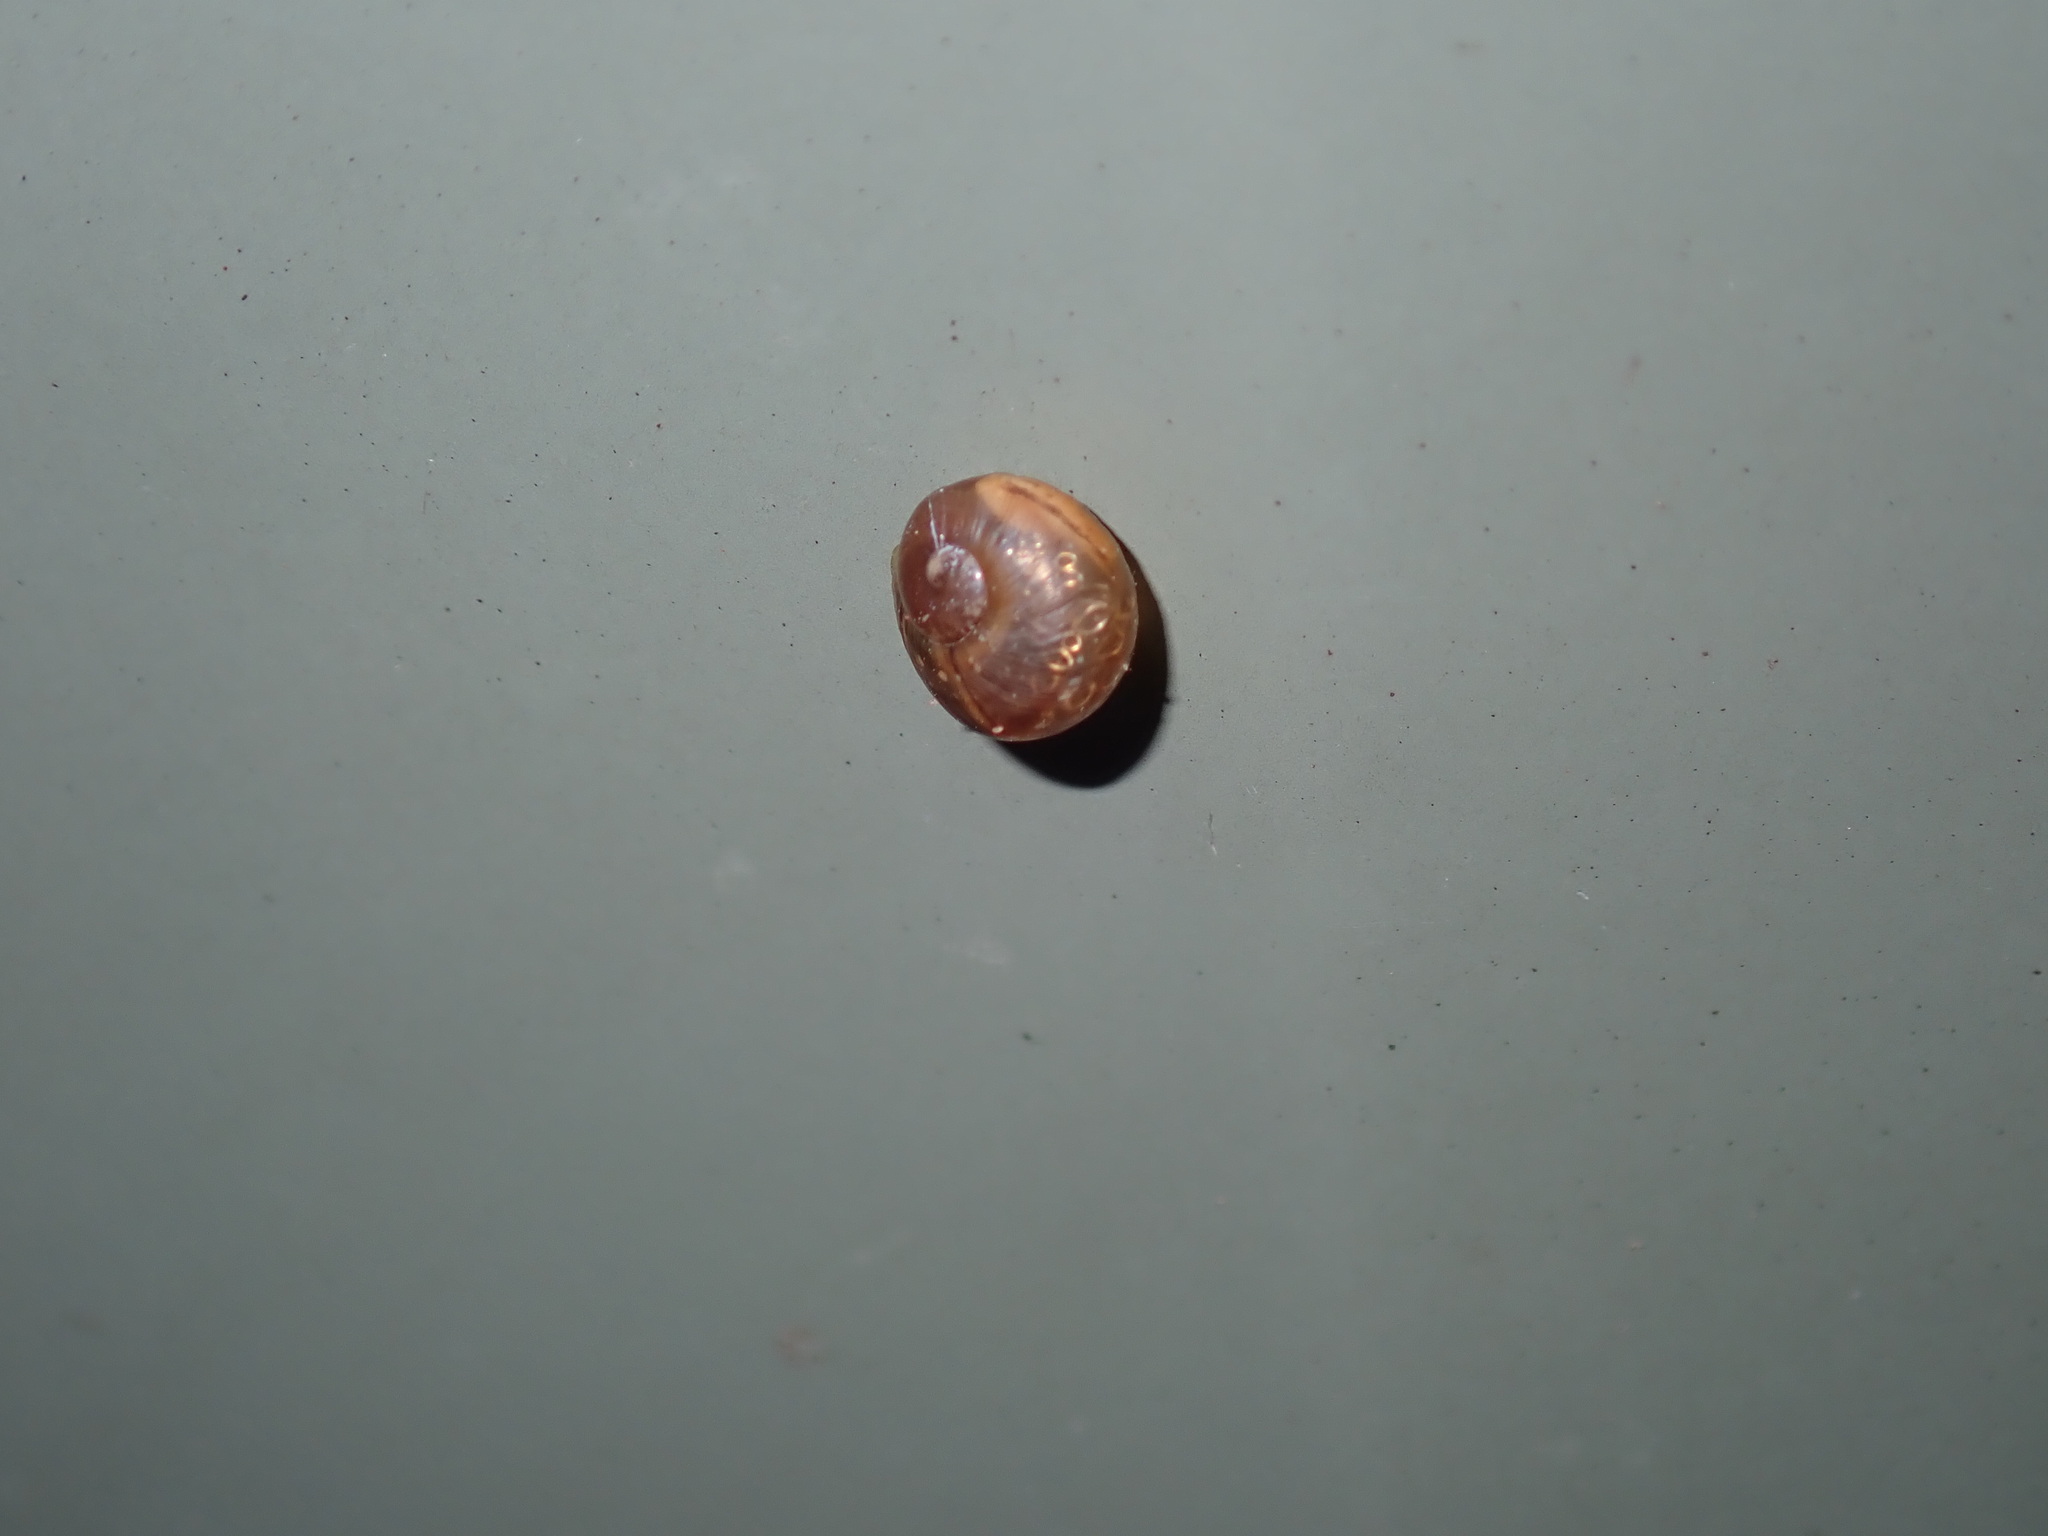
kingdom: Animalia
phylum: Mollusca
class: Gastropoda
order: Stylommatophora
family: Helicidae
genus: Cornu
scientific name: Cornu aspersum
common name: Brown garden snail
